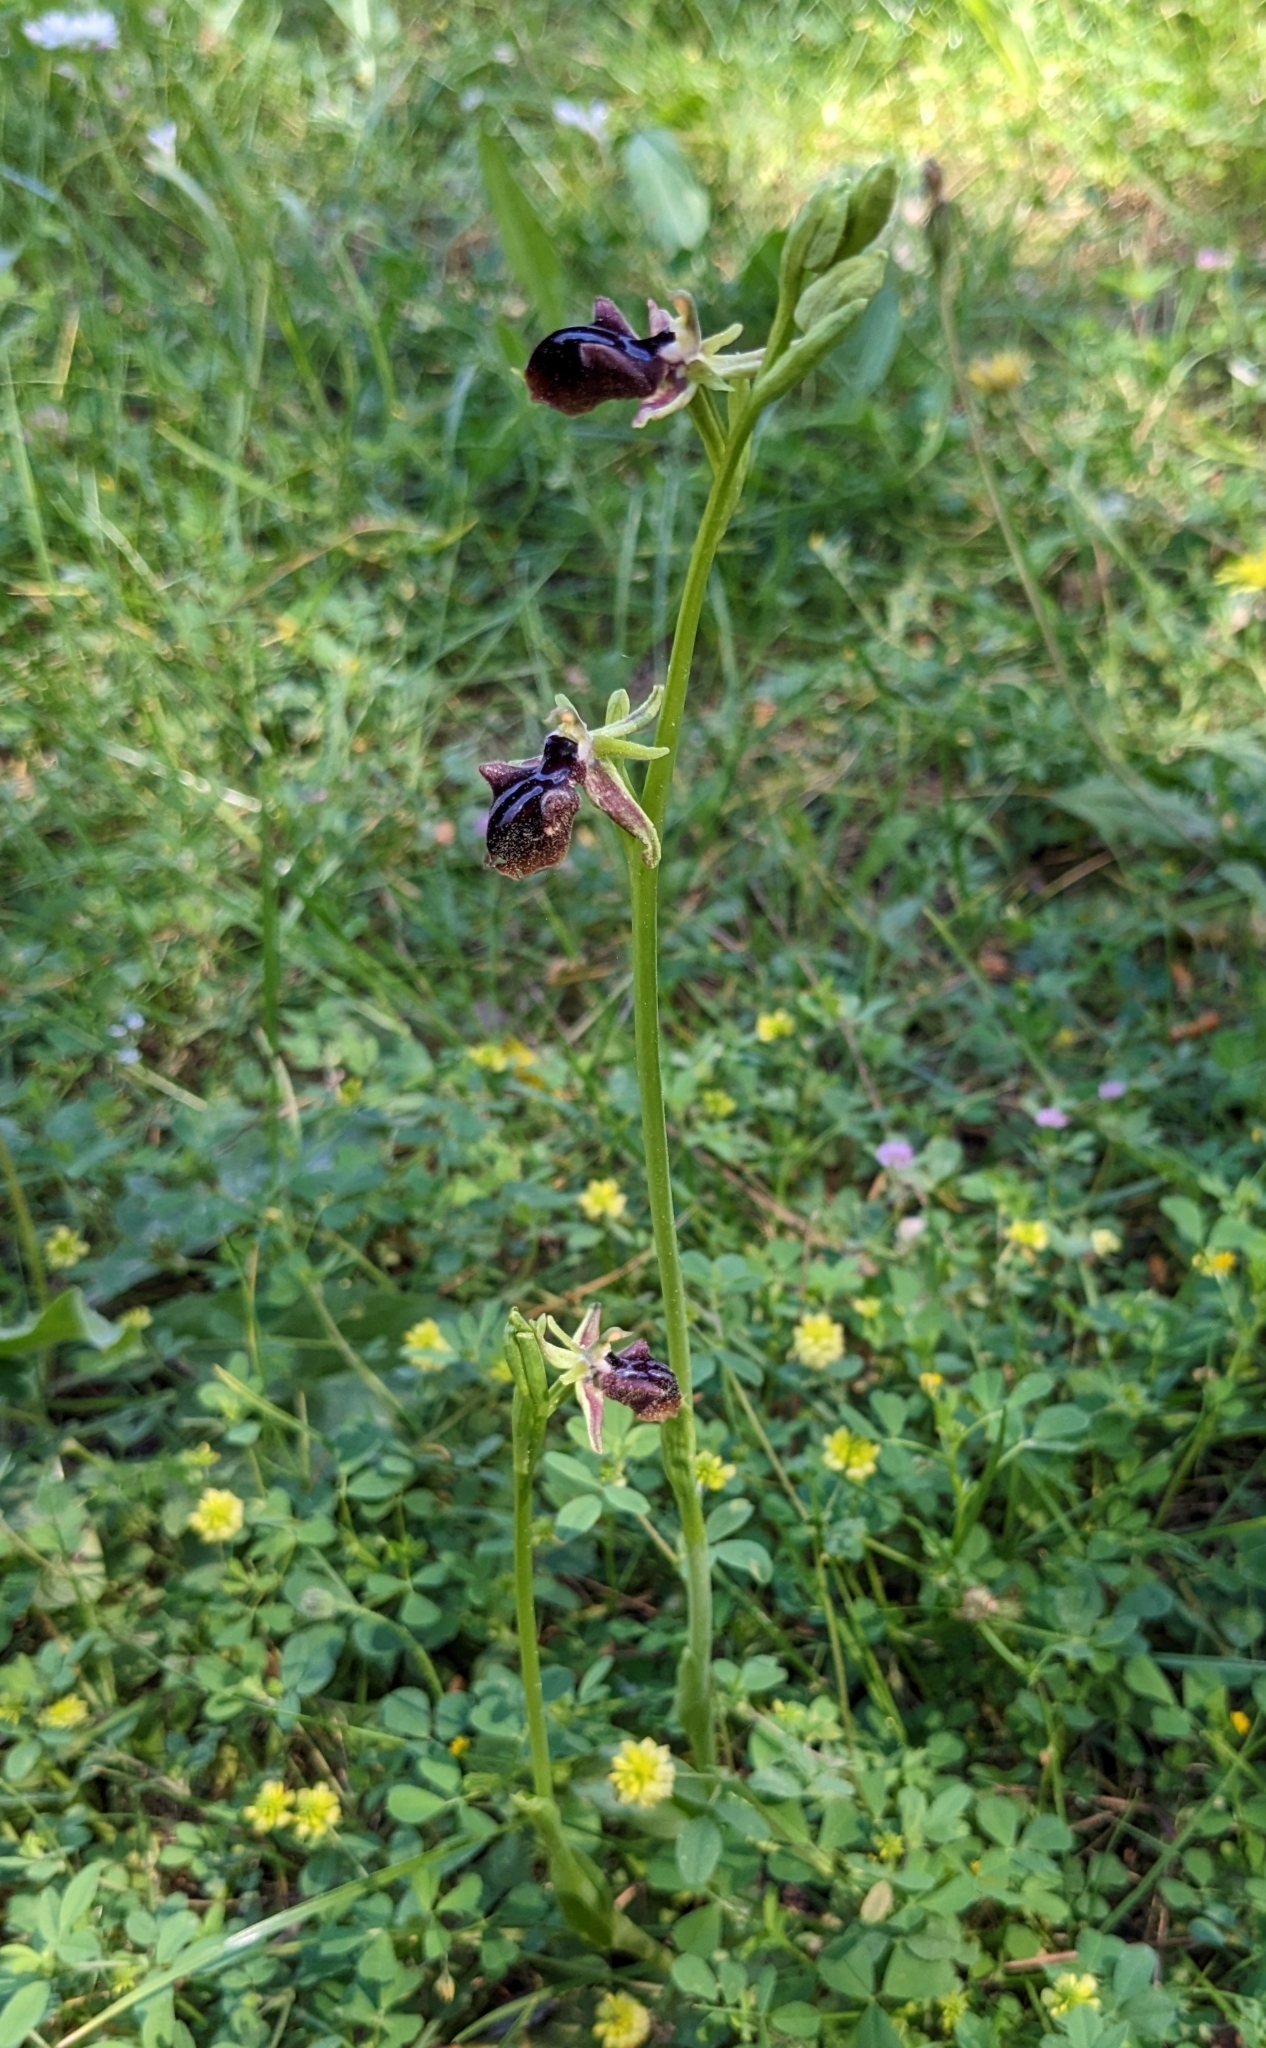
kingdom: Plantae
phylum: Tracheophyta
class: Liliopsida
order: Asparagales
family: Orchidaceae
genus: Ophrys
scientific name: Ophrys sphegodes
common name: Early spider-orchid
